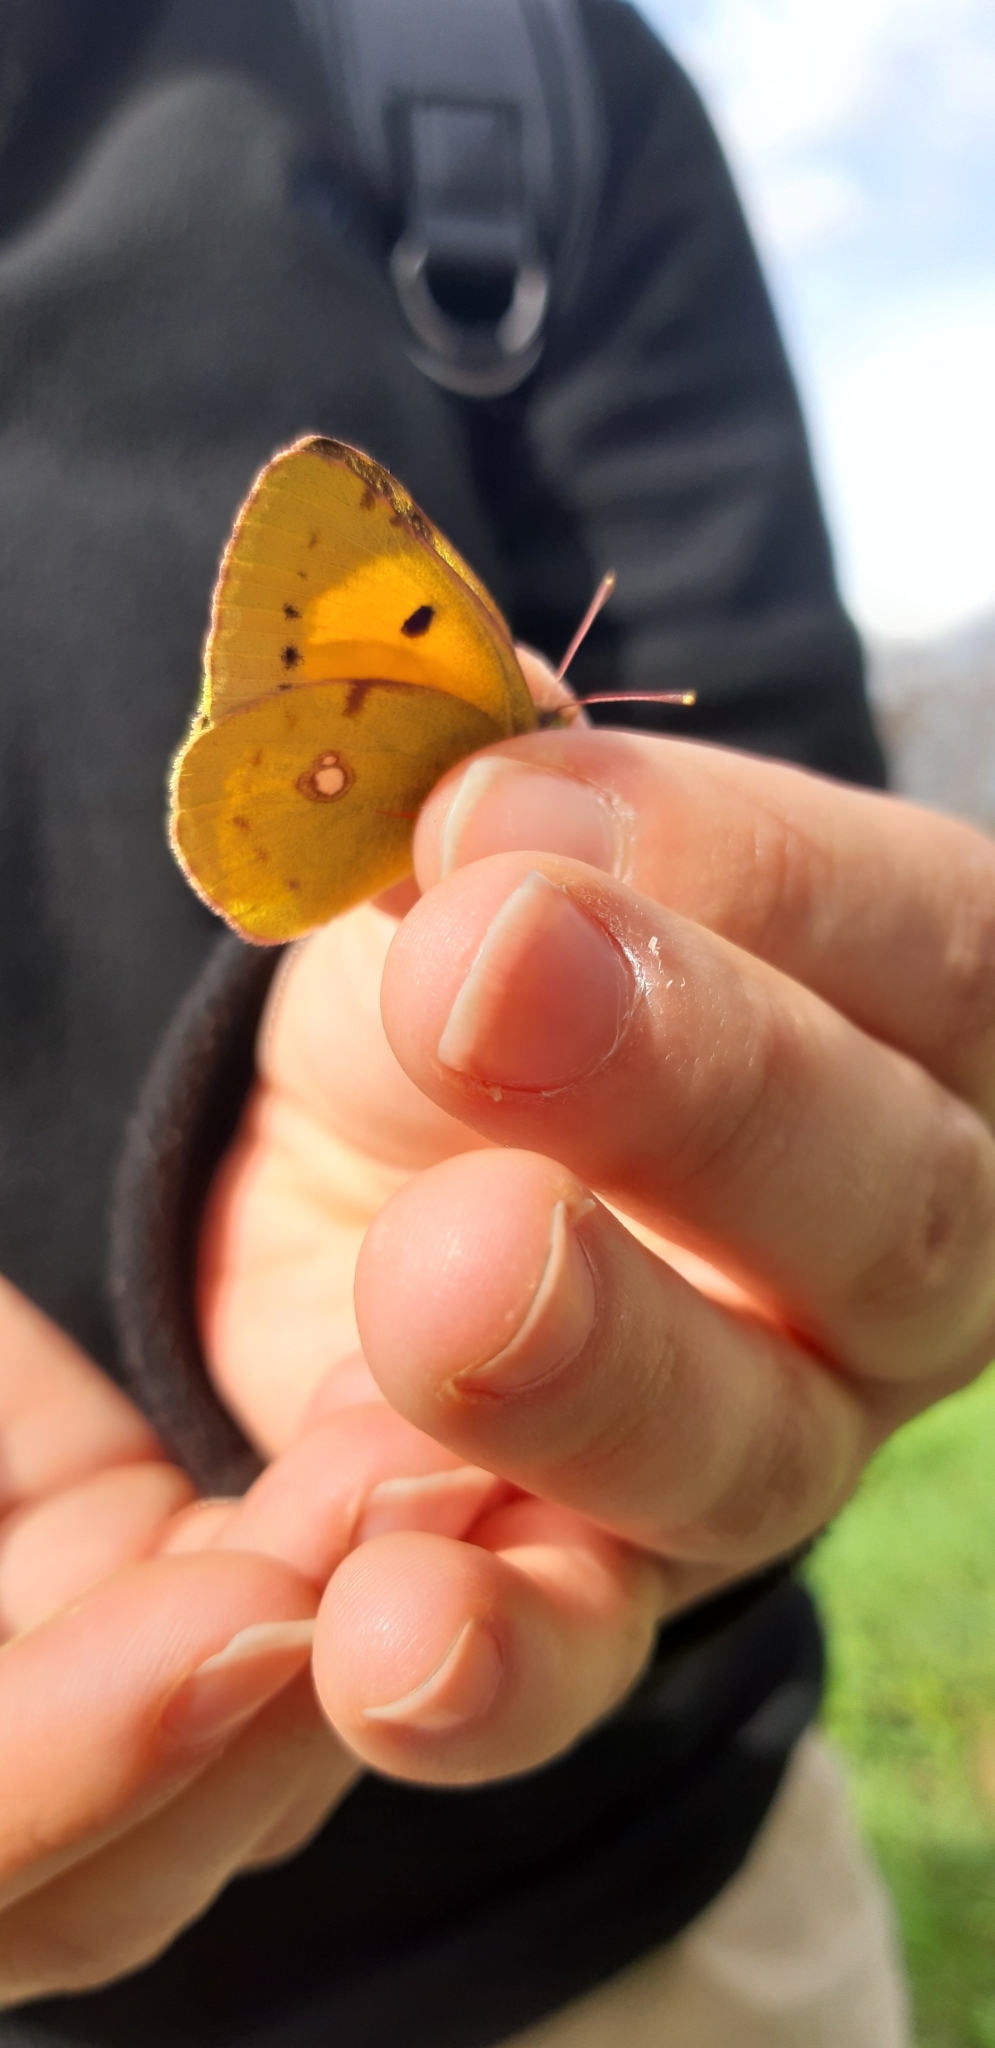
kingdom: Animalia
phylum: Arthropoda
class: Insecta
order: Lepidoptera
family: Pieridae
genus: Colias
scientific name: Colias croceus
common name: Clouded yellow
